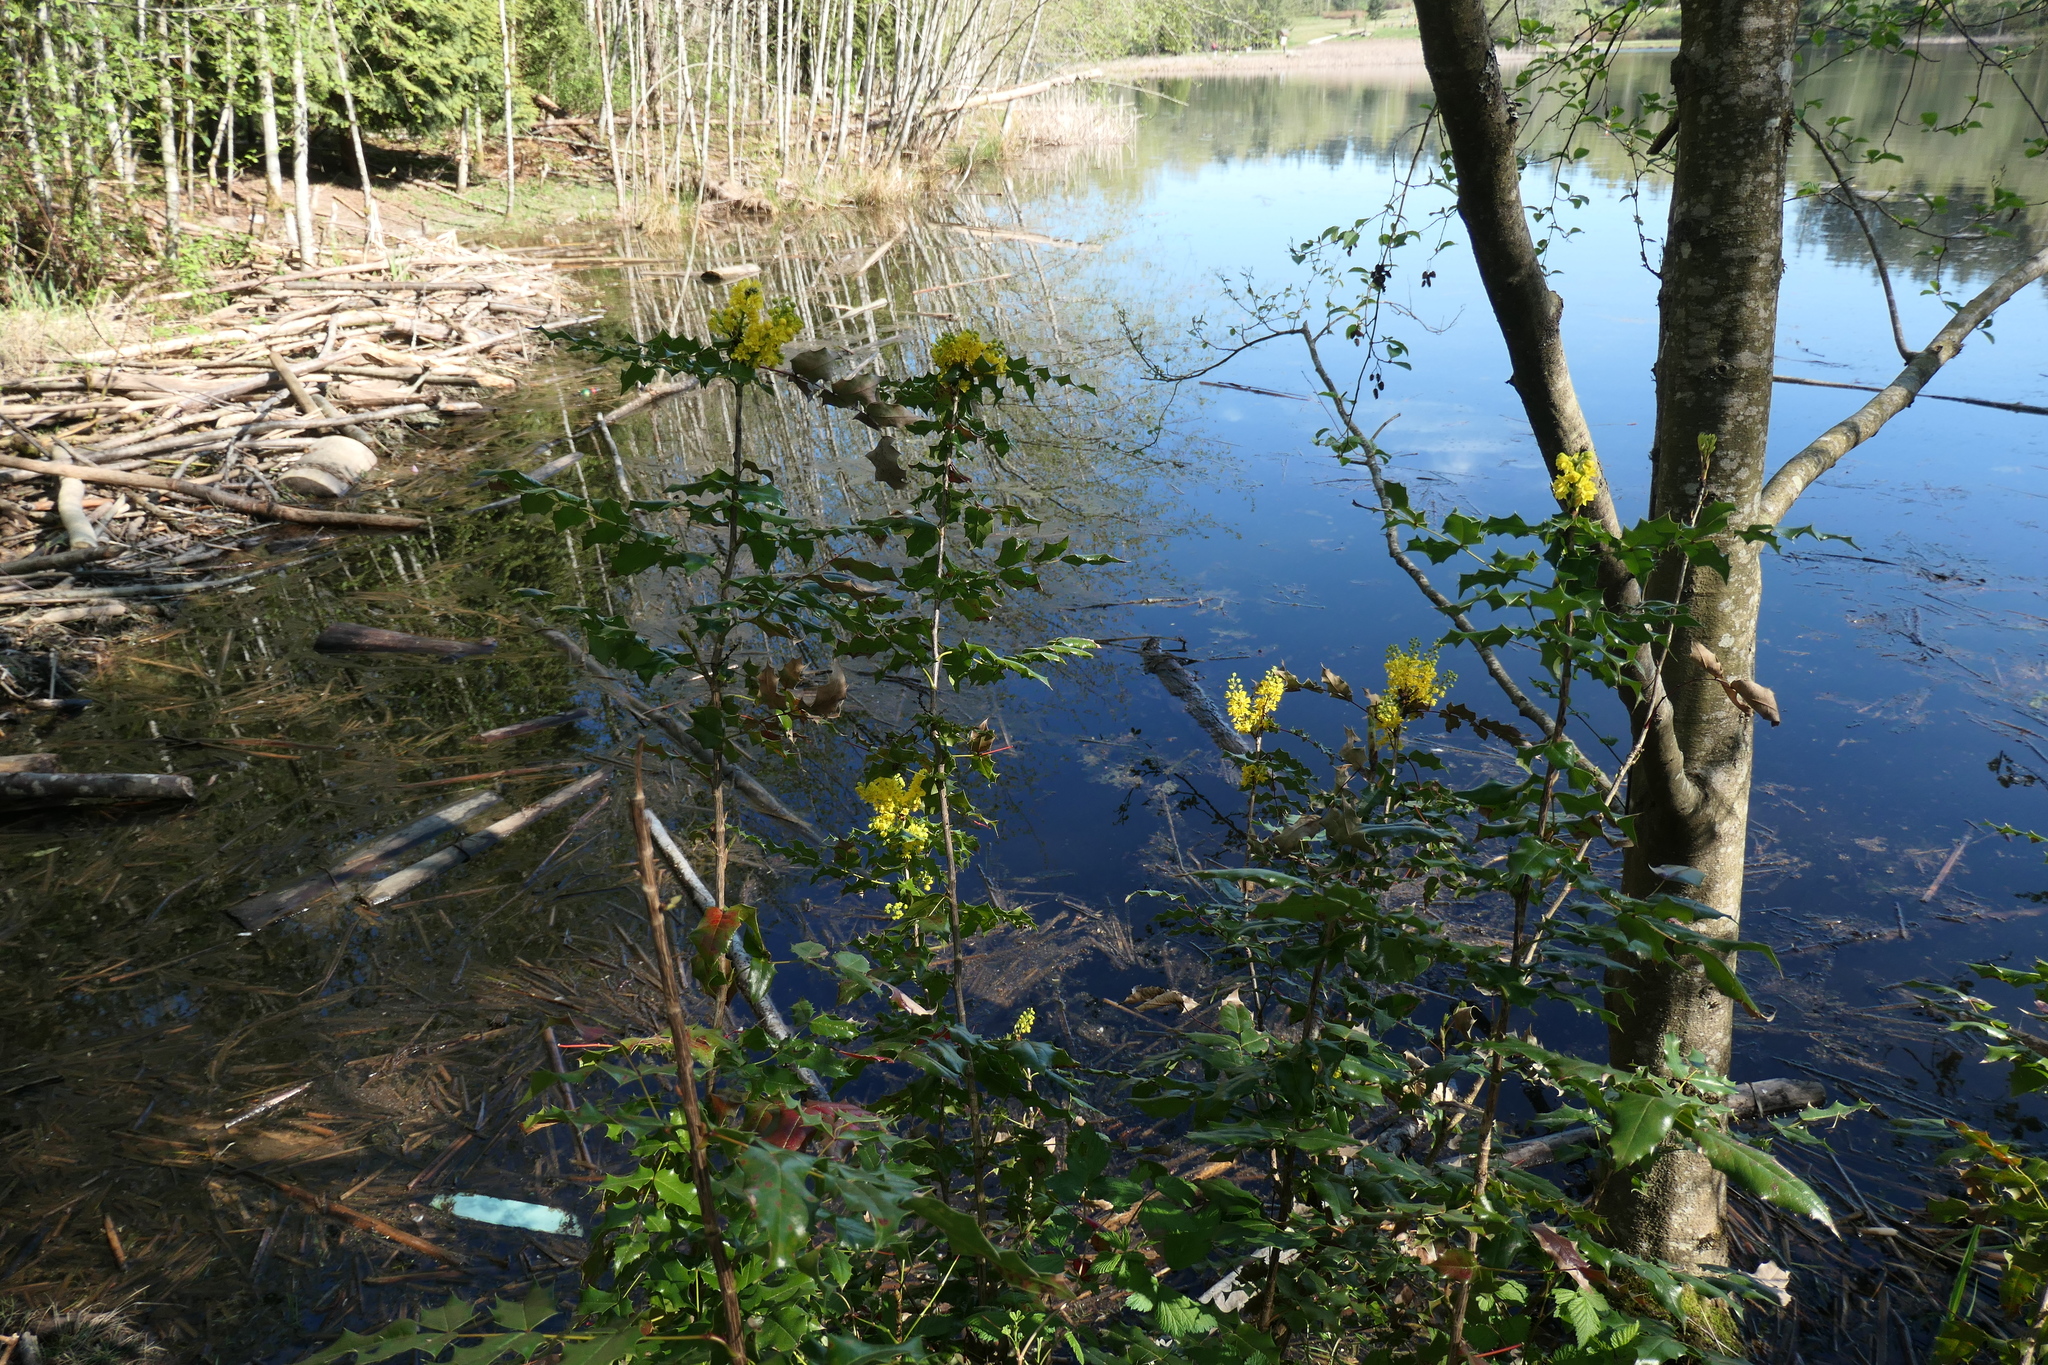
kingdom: Plantae
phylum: Tracheophyta
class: Magnoliopsida
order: Ranunculales
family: Berberidaceae
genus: Mahonia
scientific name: Mahonia aquifolium
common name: Oregon-grape
